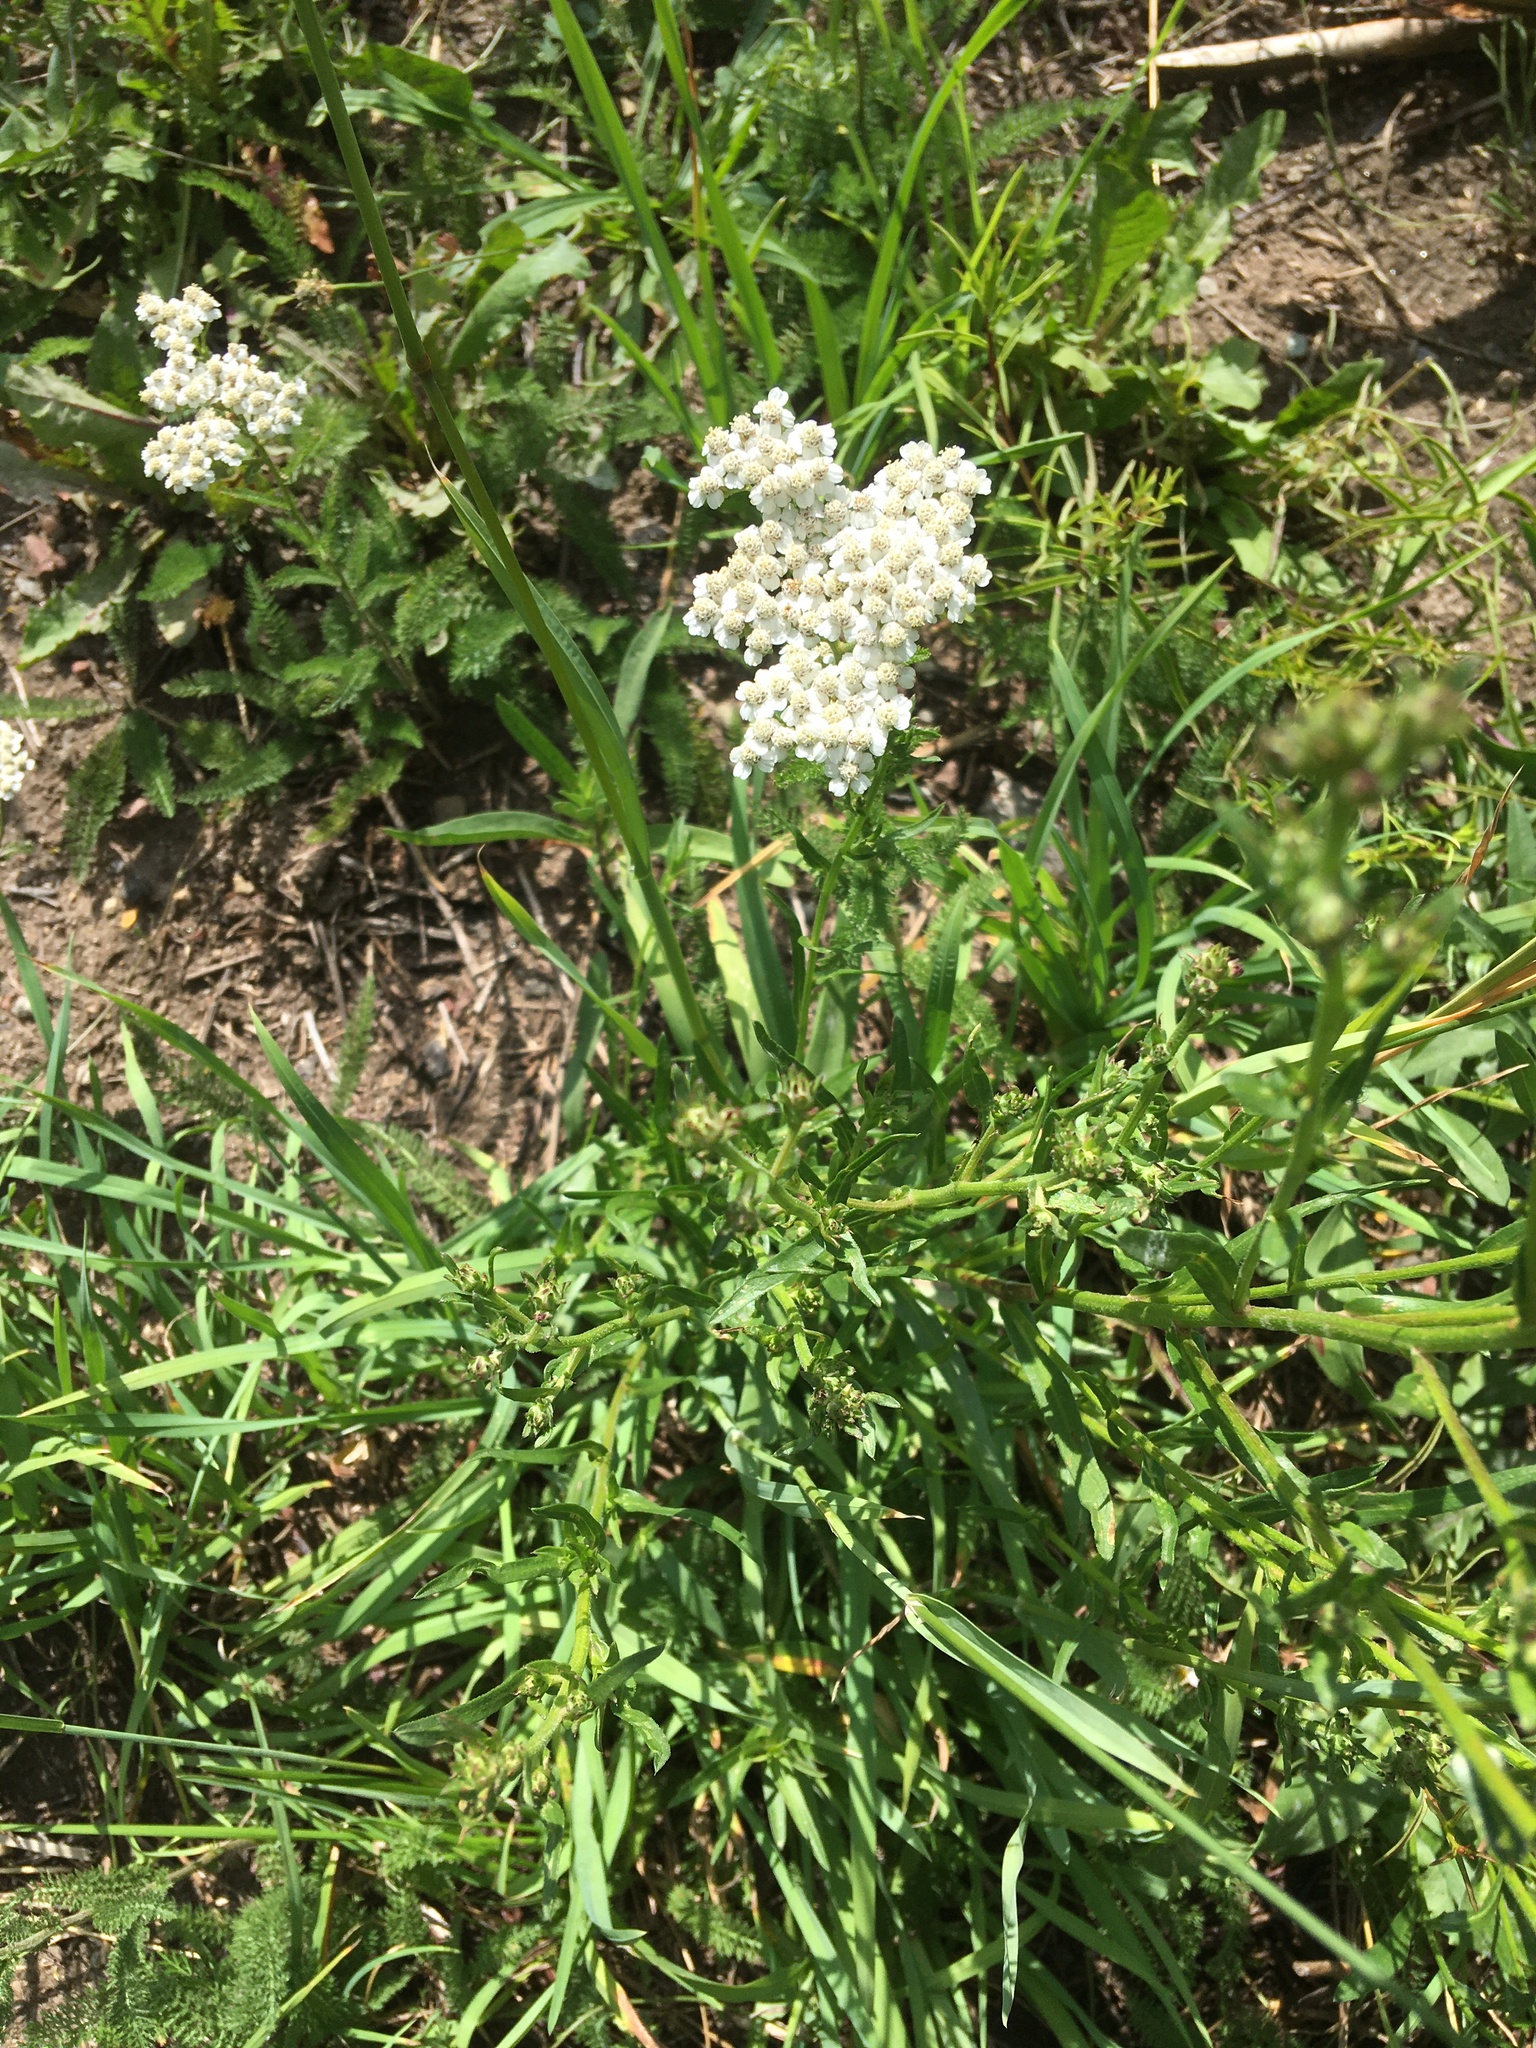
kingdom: Plantae
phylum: Tracheophyta
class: Magnoliopsida
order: Asterales
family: Asteraceae
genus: Achillea
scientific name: Achillea millefolium
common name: Yarrow
